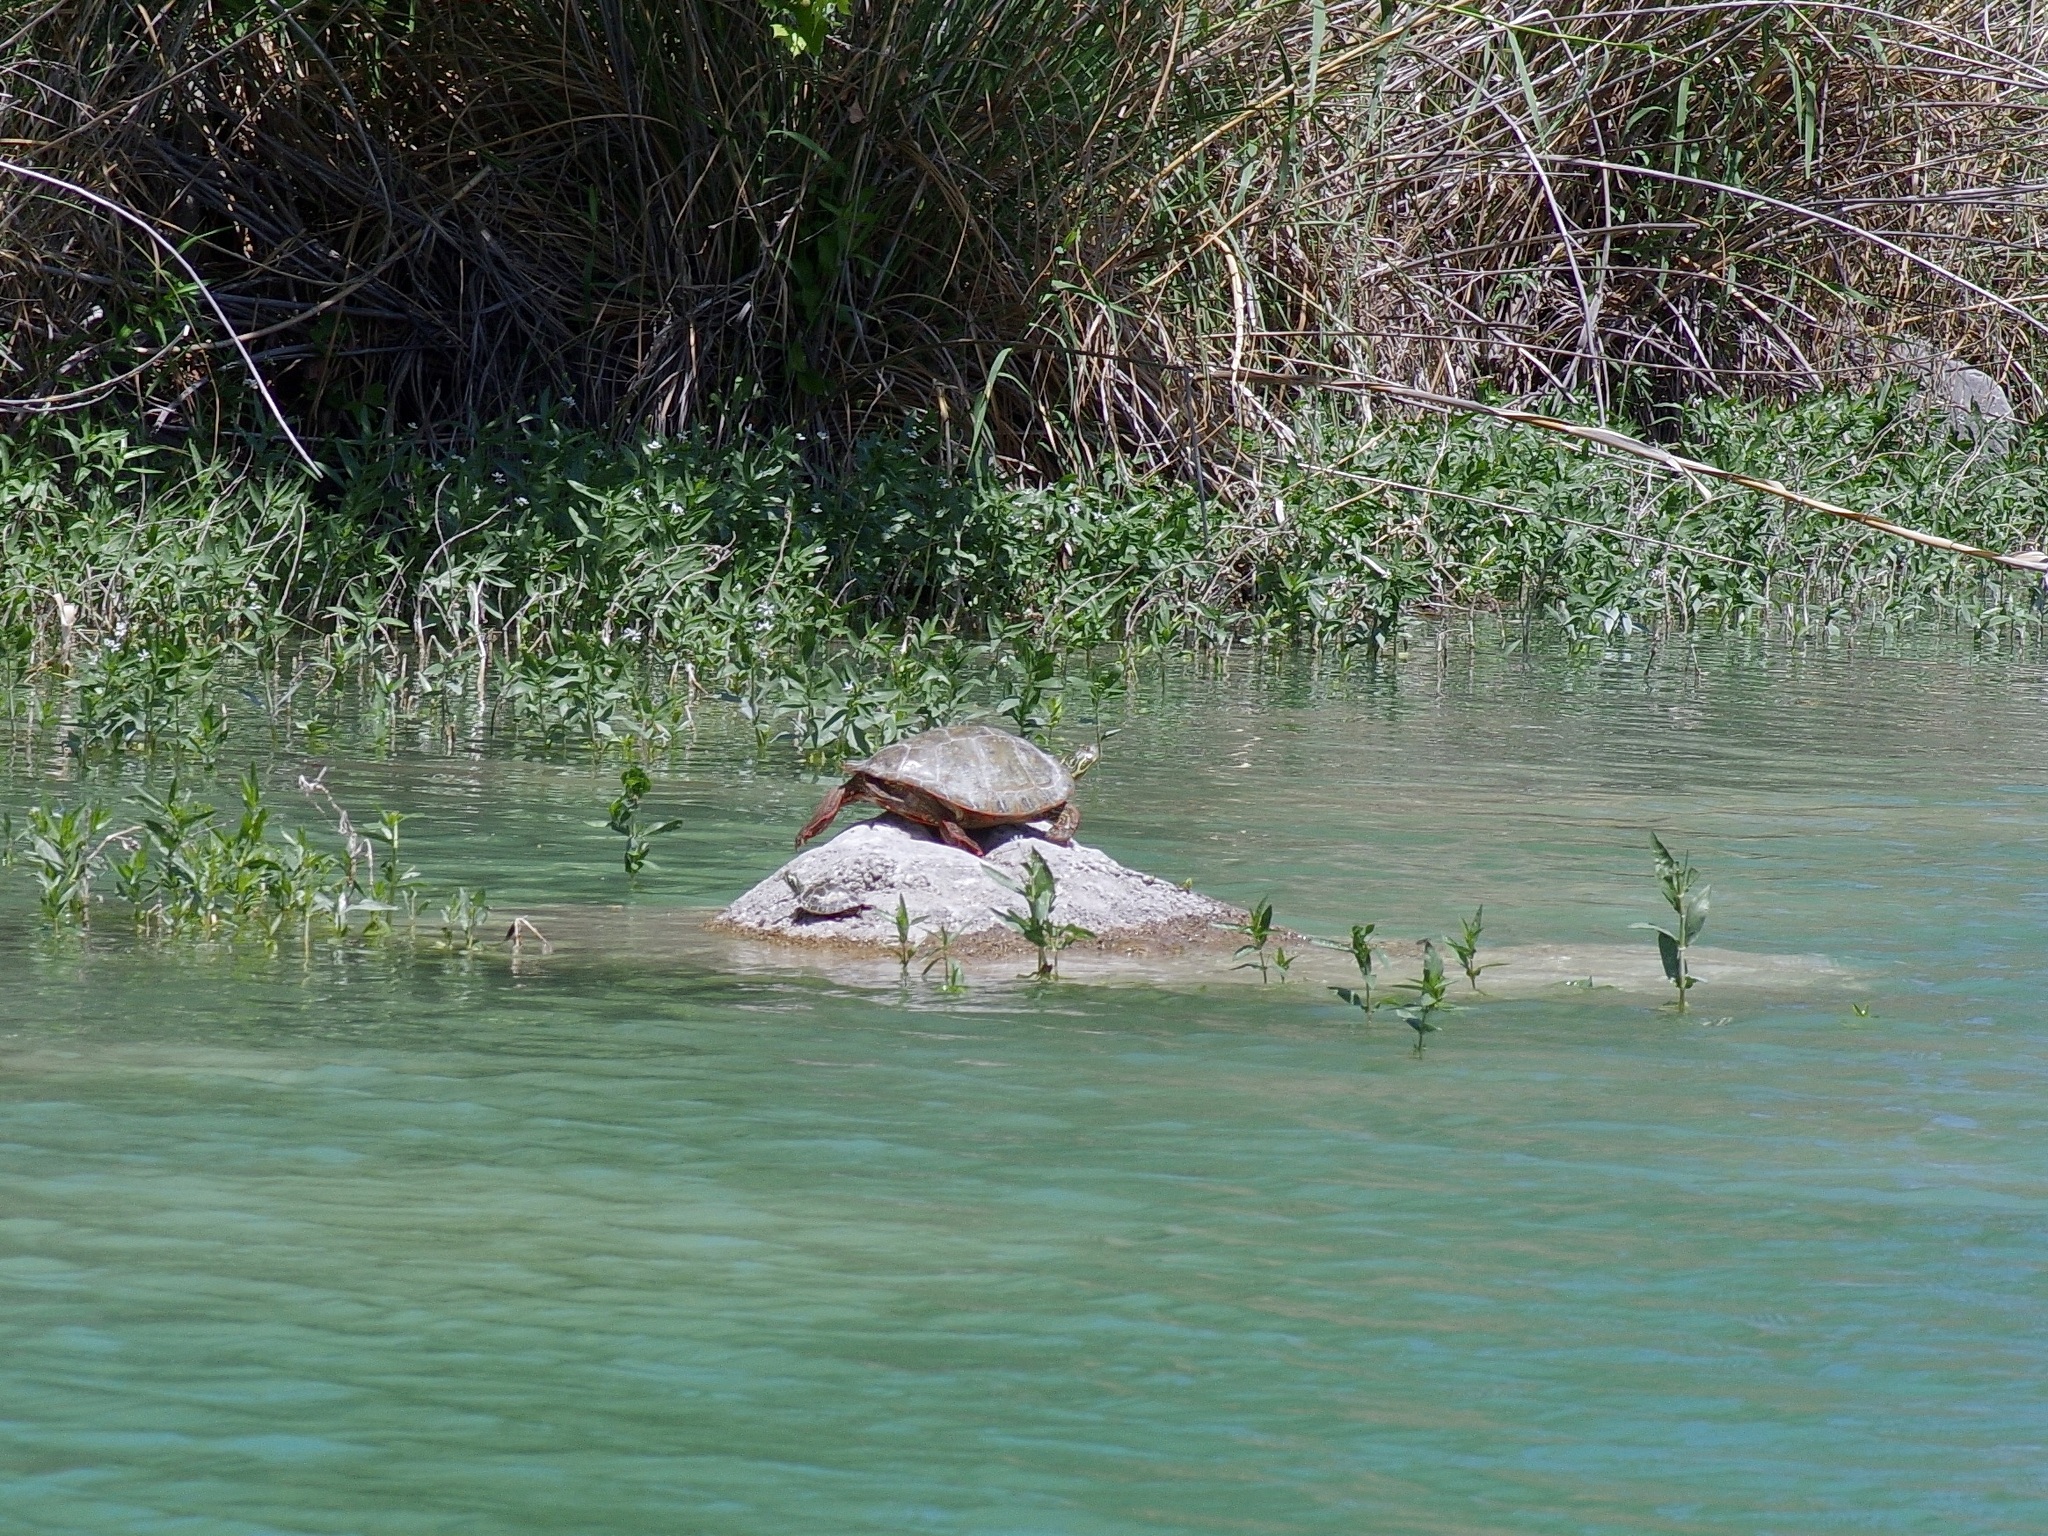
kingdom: Animalia
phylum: Chordata
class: Testudines
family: Emydidae
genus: Pseudemys
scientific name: Pseudemys gorzugi
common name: Rio grande cooter
